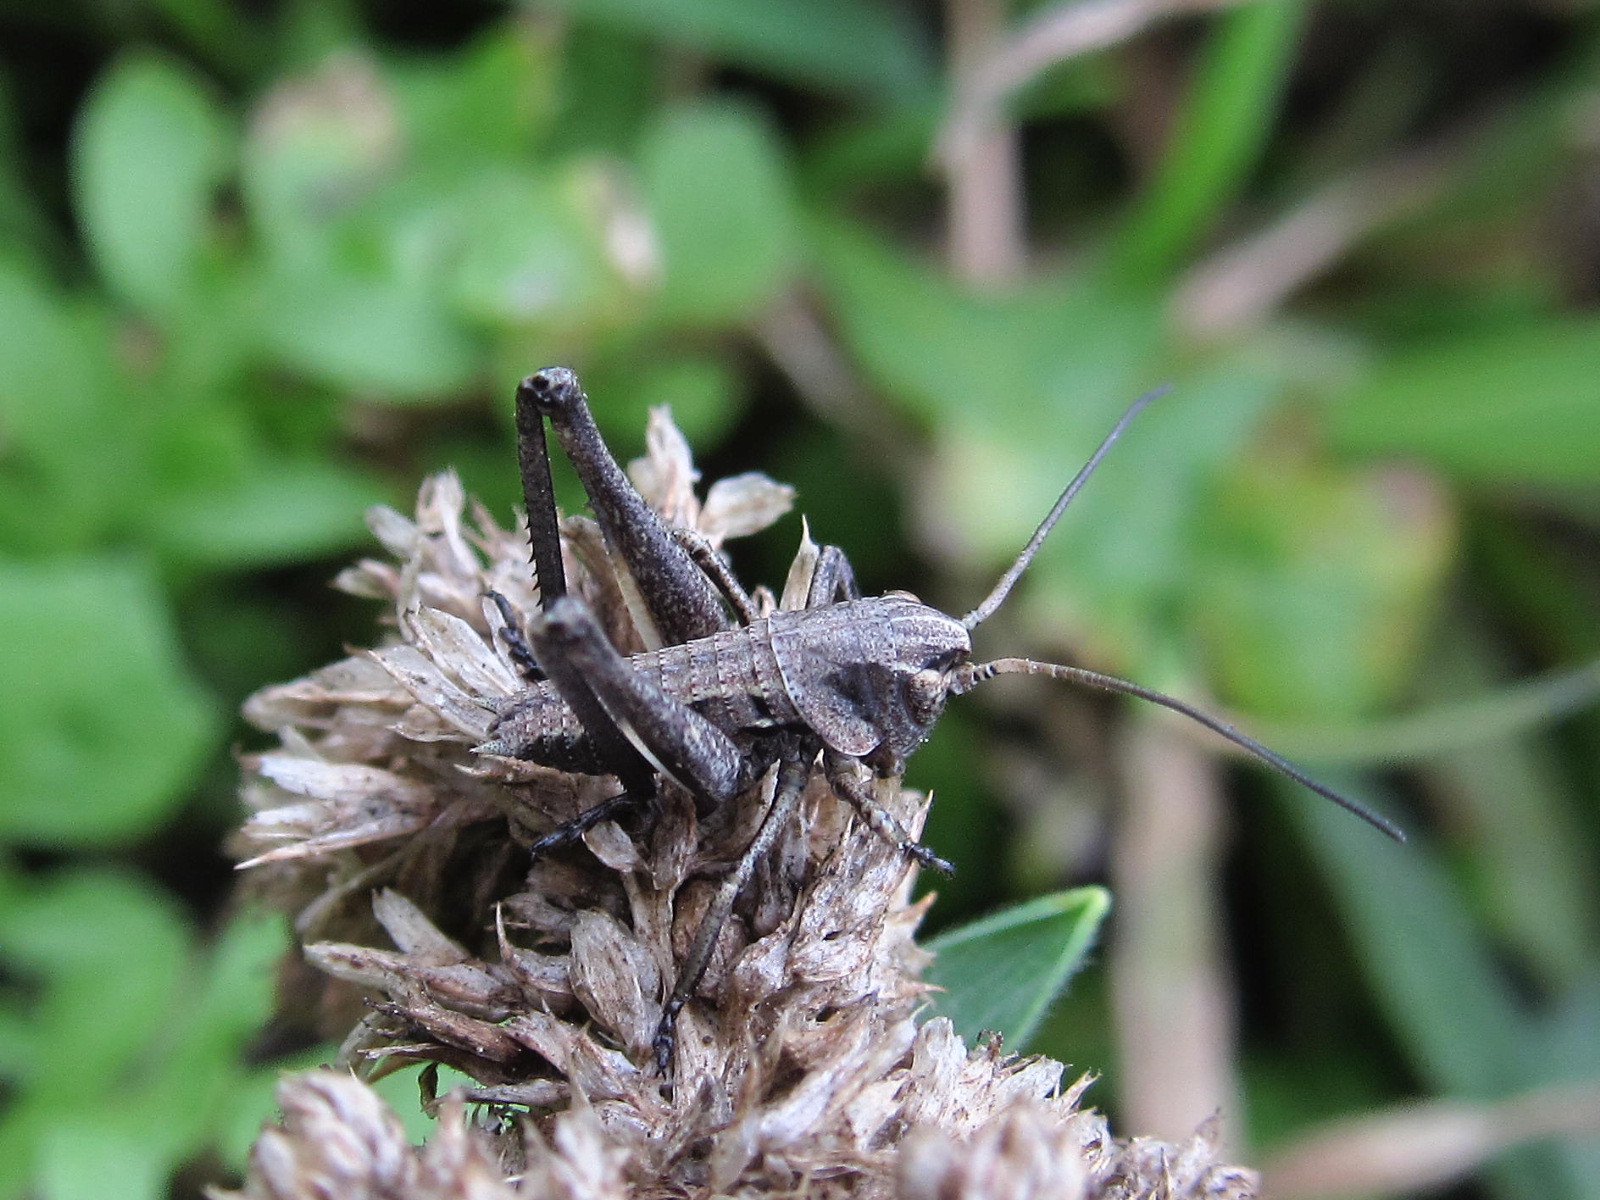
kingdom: Animalia
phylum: Arthropoda
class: Insecta
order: Orthoptera
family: Tettigoniidae
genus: Decticus
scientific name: Decticus verrucivorus
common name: Wart-biter
